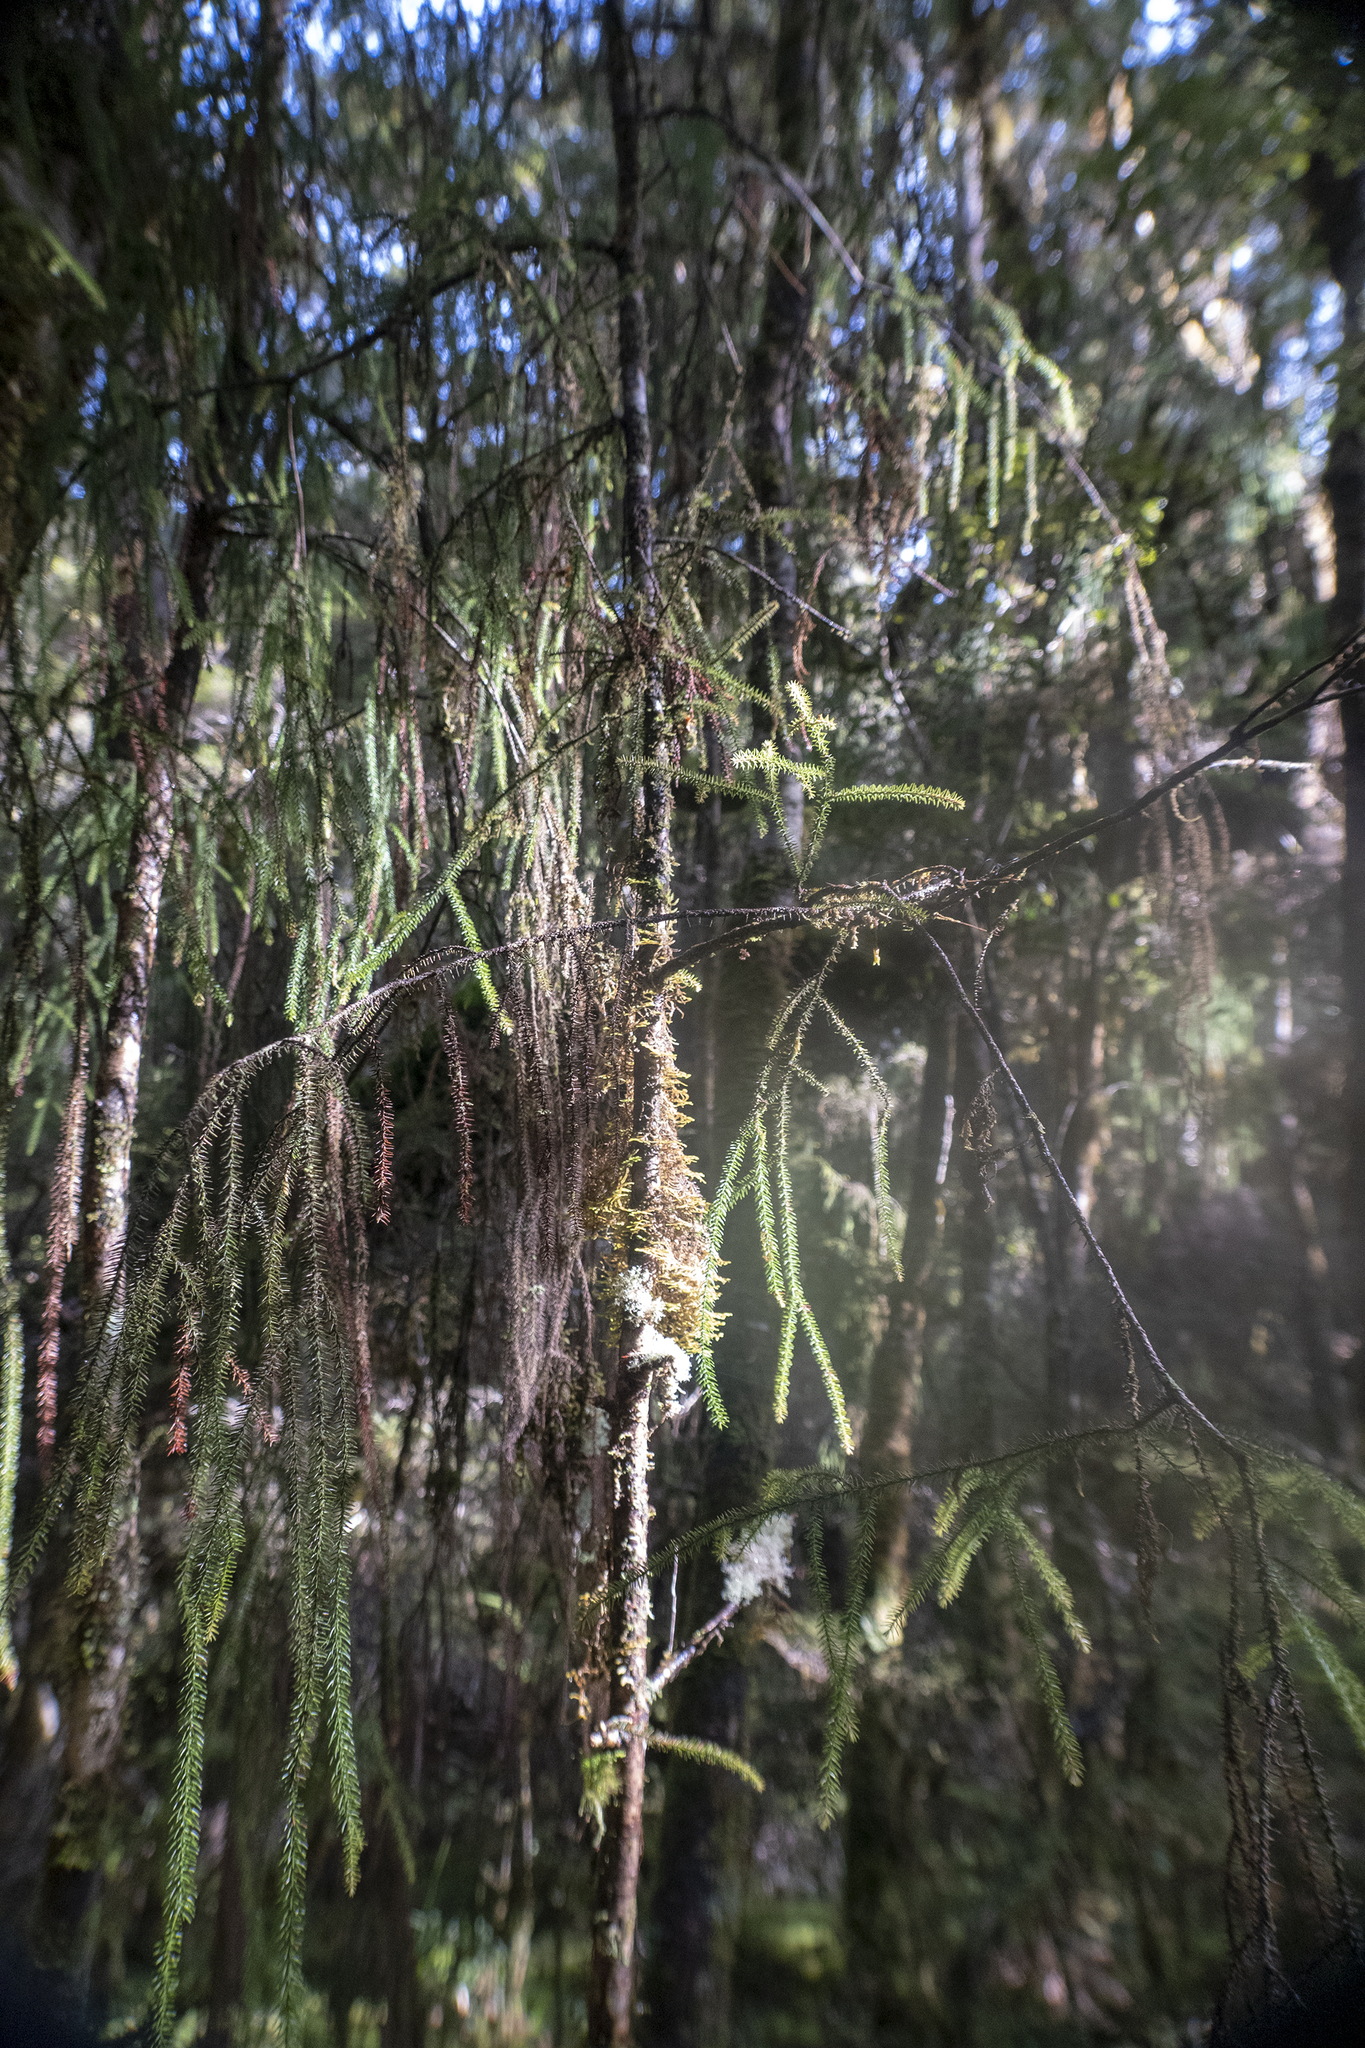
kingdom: Plantae
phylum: Tracheophyta
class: Pinopsida
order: Pinales
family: Podocarpaceae
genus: Dacrydium
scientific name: Dacrydium cupressinum
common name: Red pine
